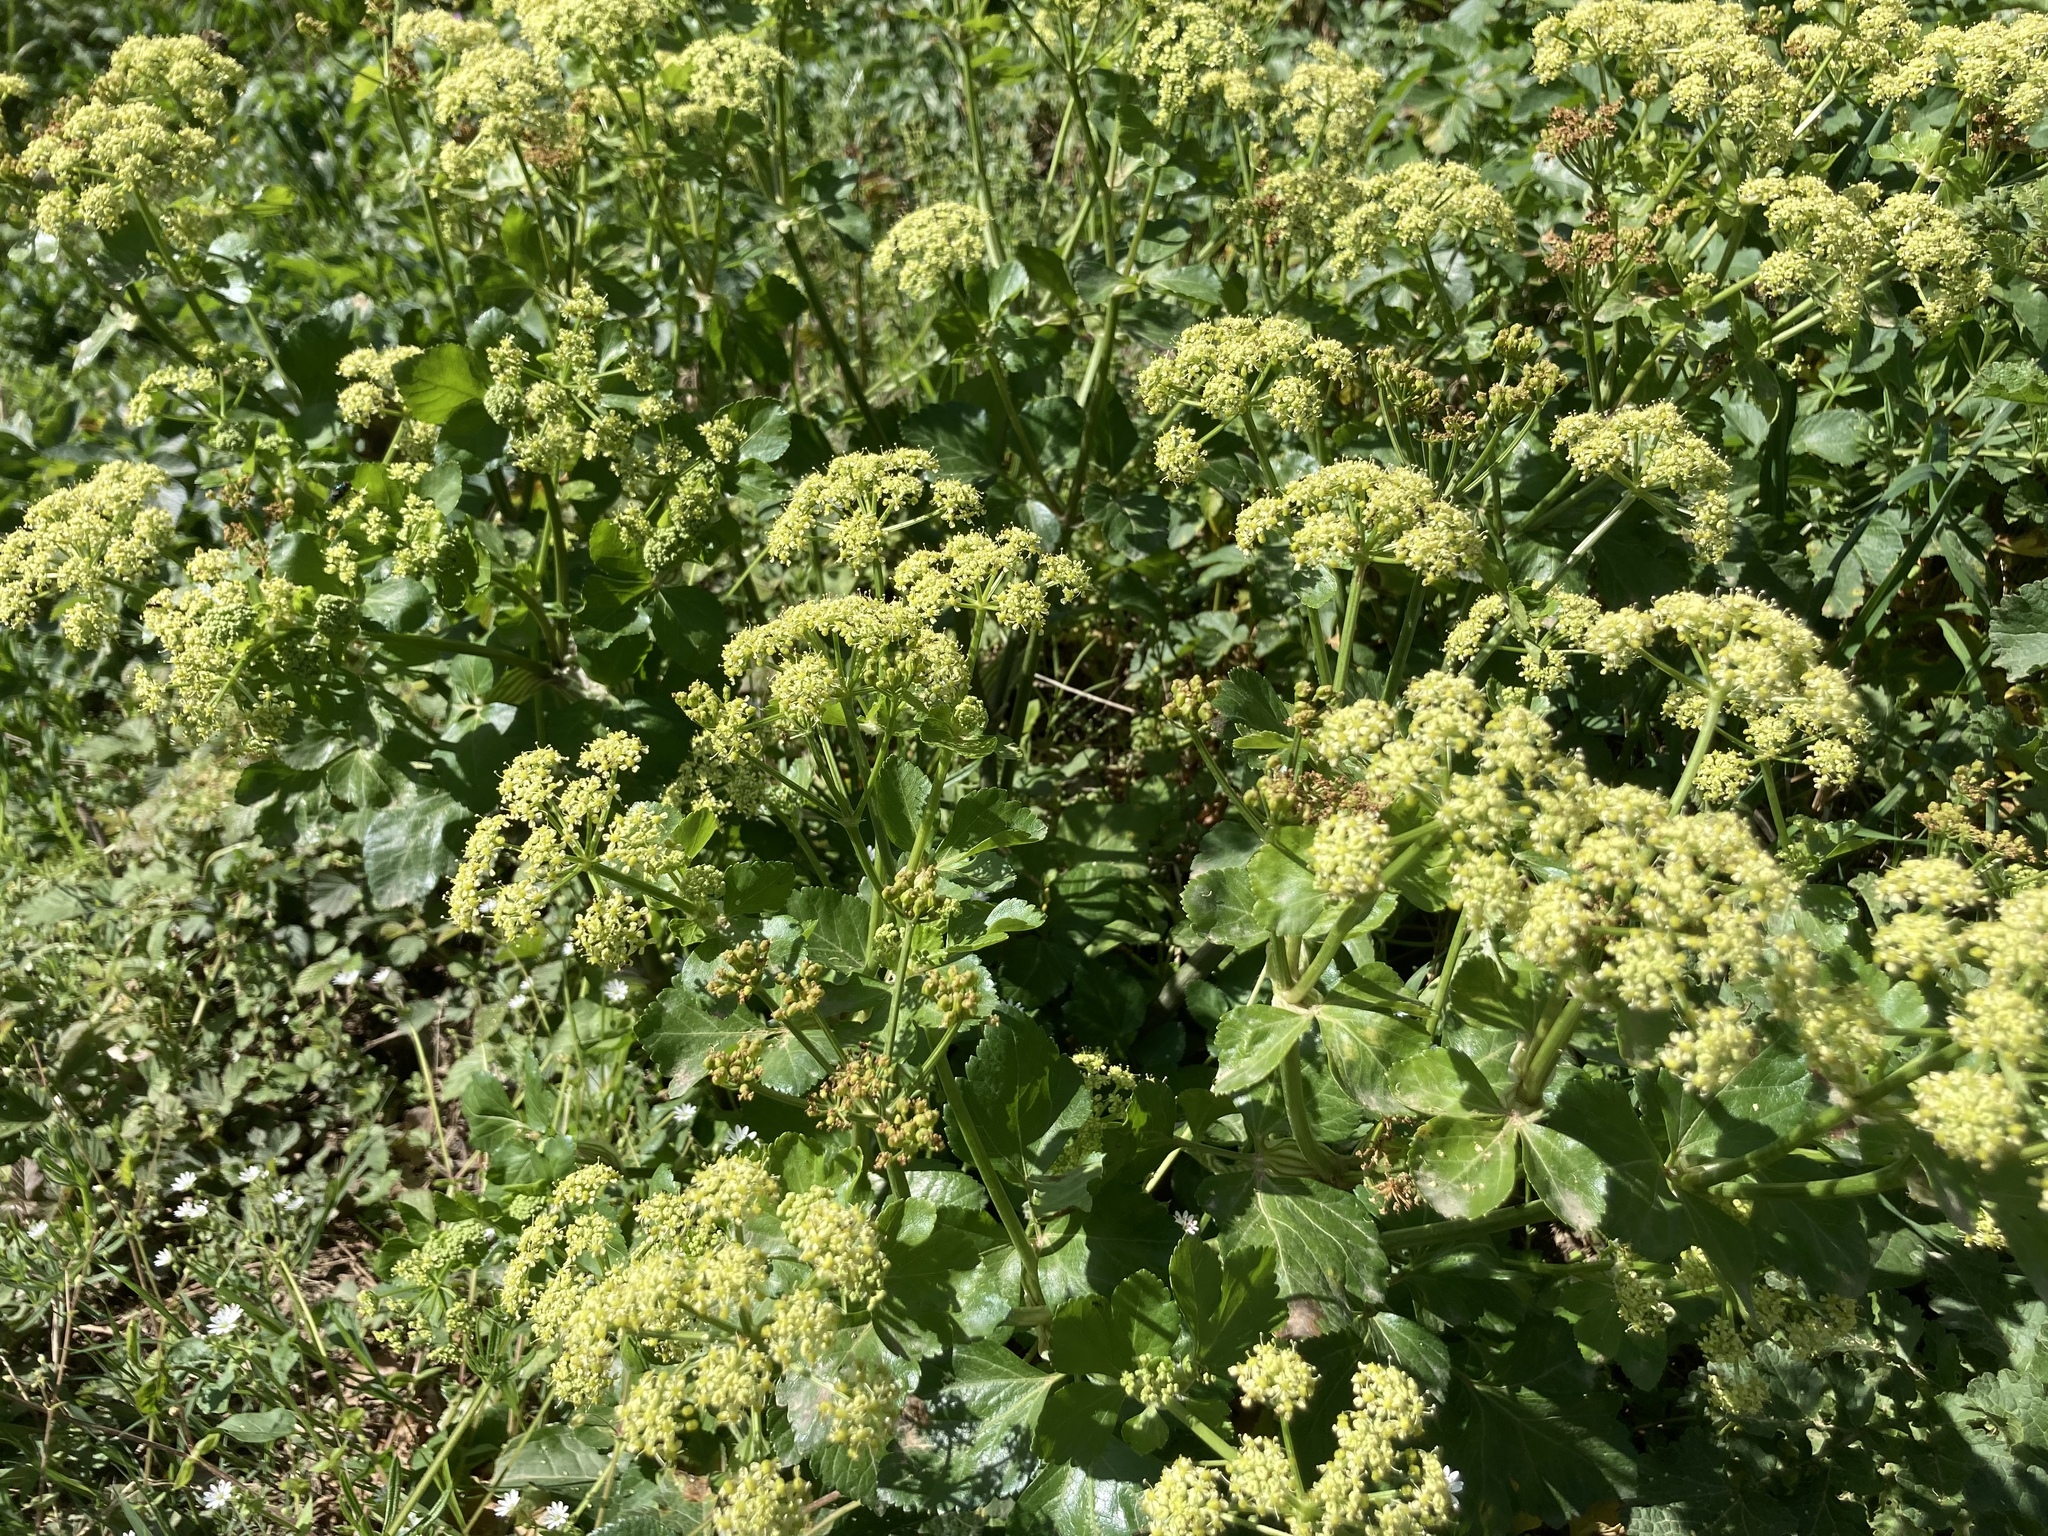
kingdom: Plantae
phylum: Tracheophyta
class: Magnoliopsida
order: Apiales
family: Apiaceae
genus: Smyrnium
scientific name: Smyrnium olusatrum
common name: Alexanders
